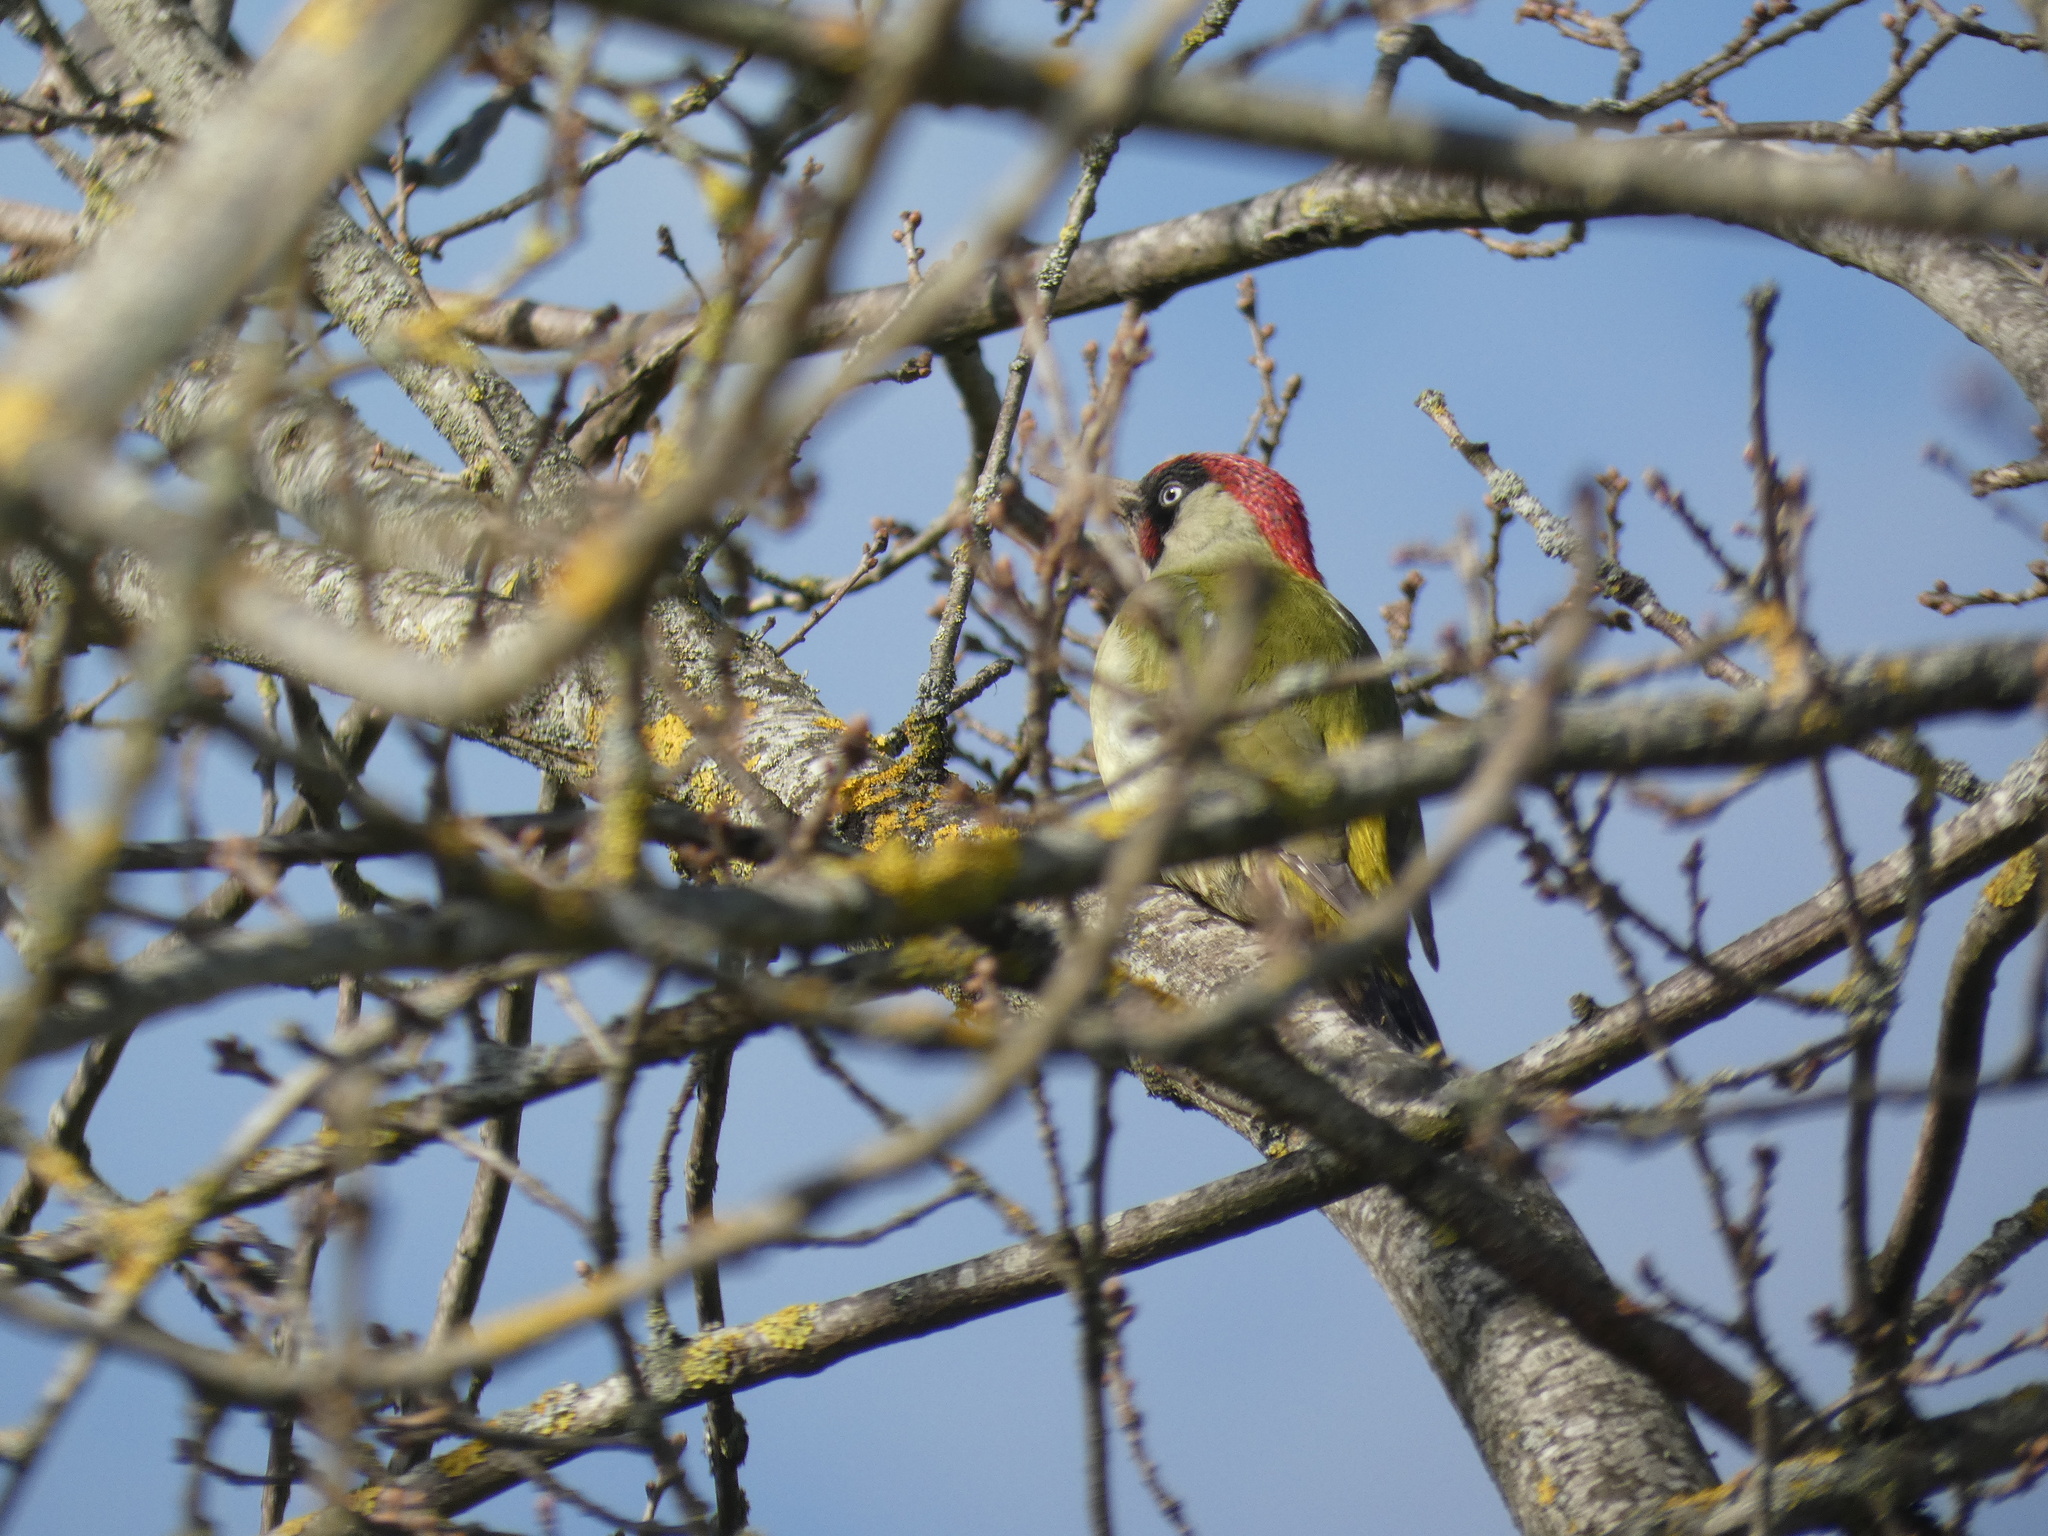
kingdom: Animalia
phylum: Chordata
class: Aves
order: Piciformes
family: Picidae
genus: Picus
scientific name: Picus viridis
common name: European green woodpecker
